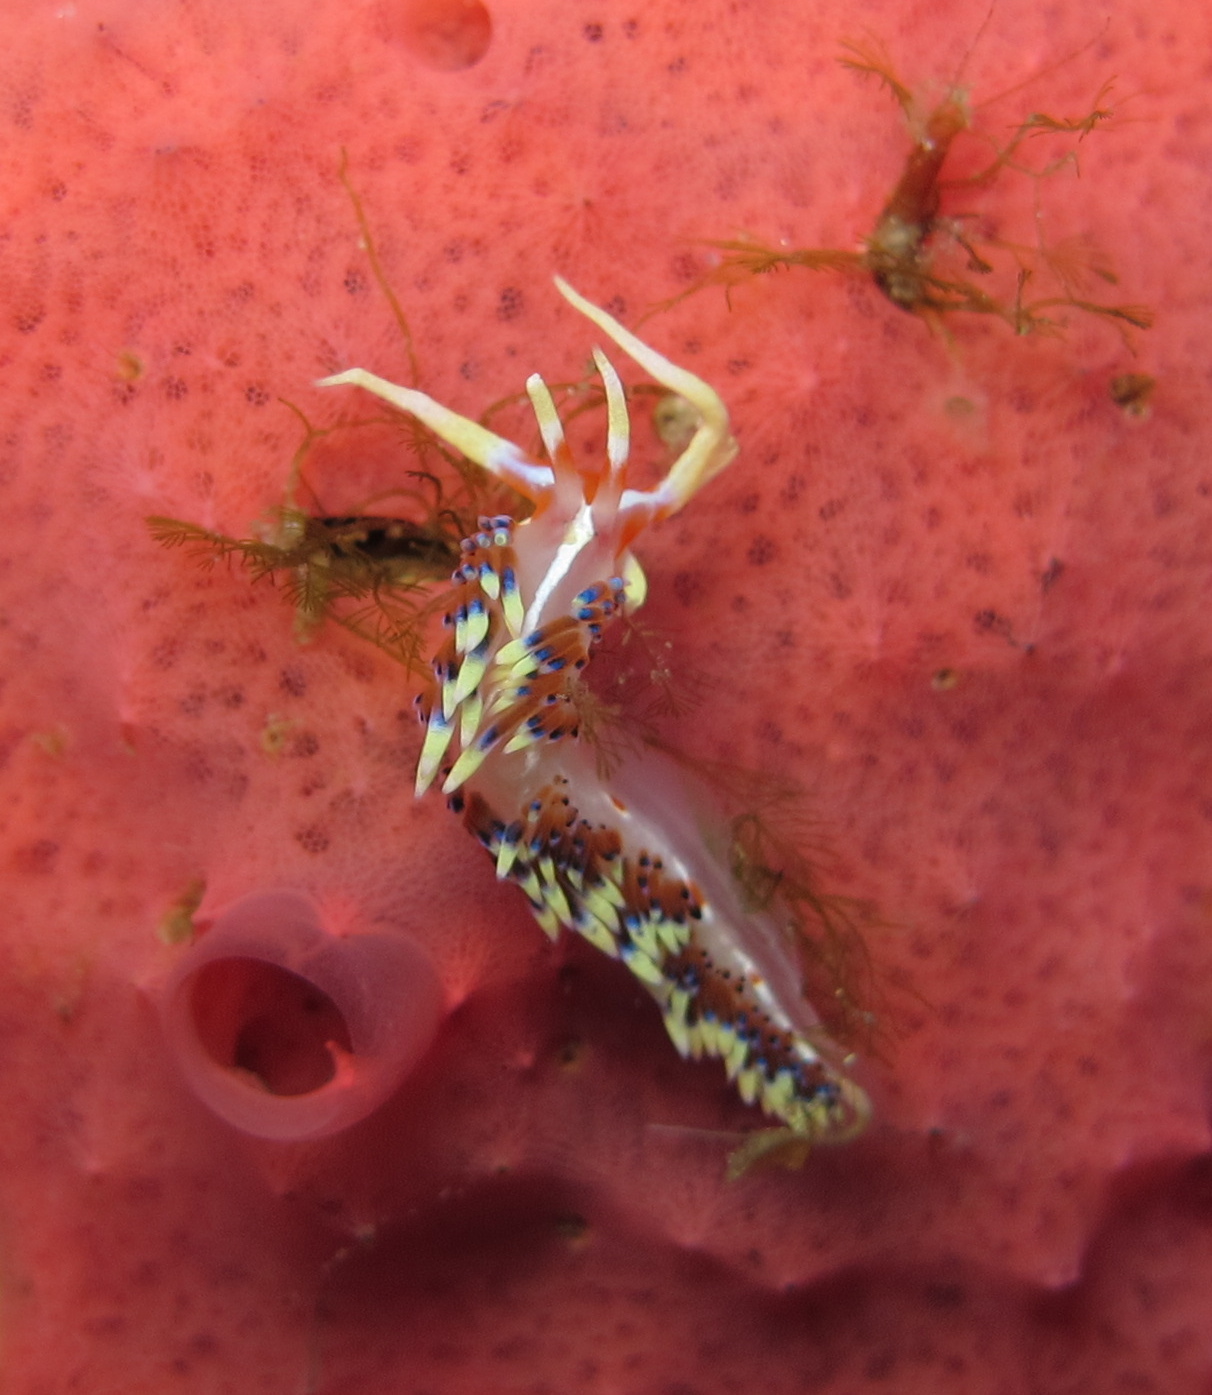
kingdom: Animalia
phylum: Mollusca
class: Gastropoda
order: Nudibranchia
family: Facelinidae
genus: Caloria
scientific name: Caloria indica
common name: Sea slug
